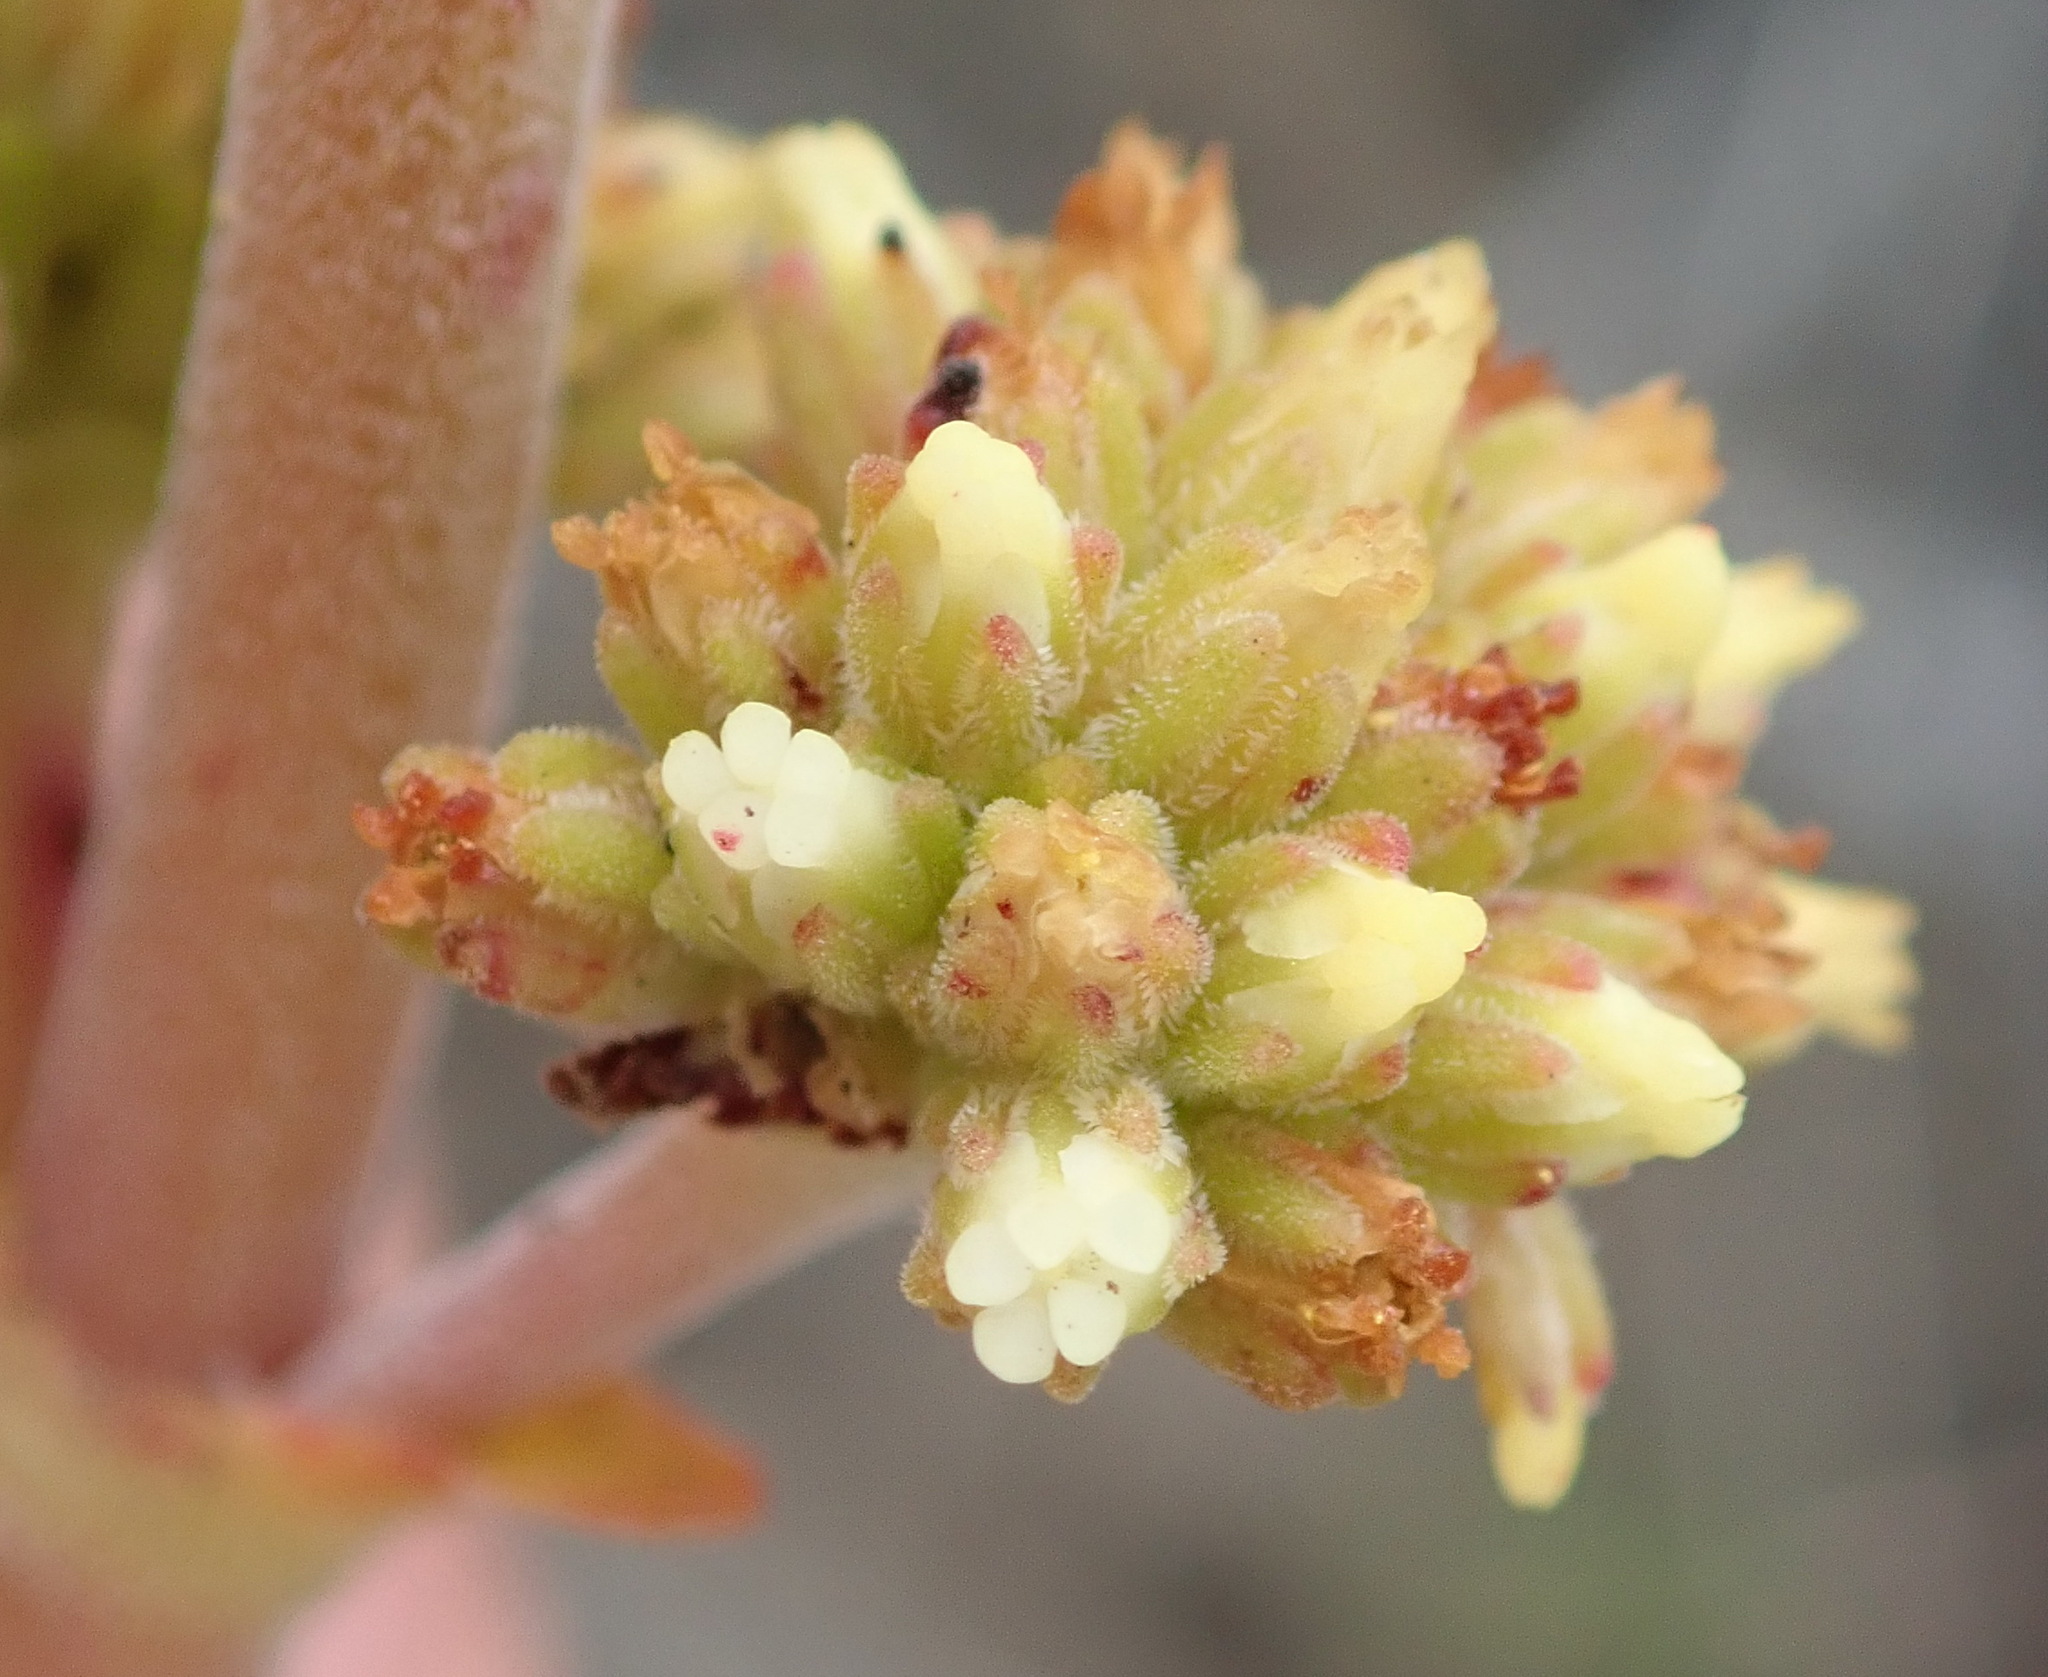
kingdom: Plantae
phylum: Tracheophyta
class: Magnoliopsida
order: Saxifragales
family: Crassulaceae
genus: Crassula
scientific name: Crassula nudicaulis
